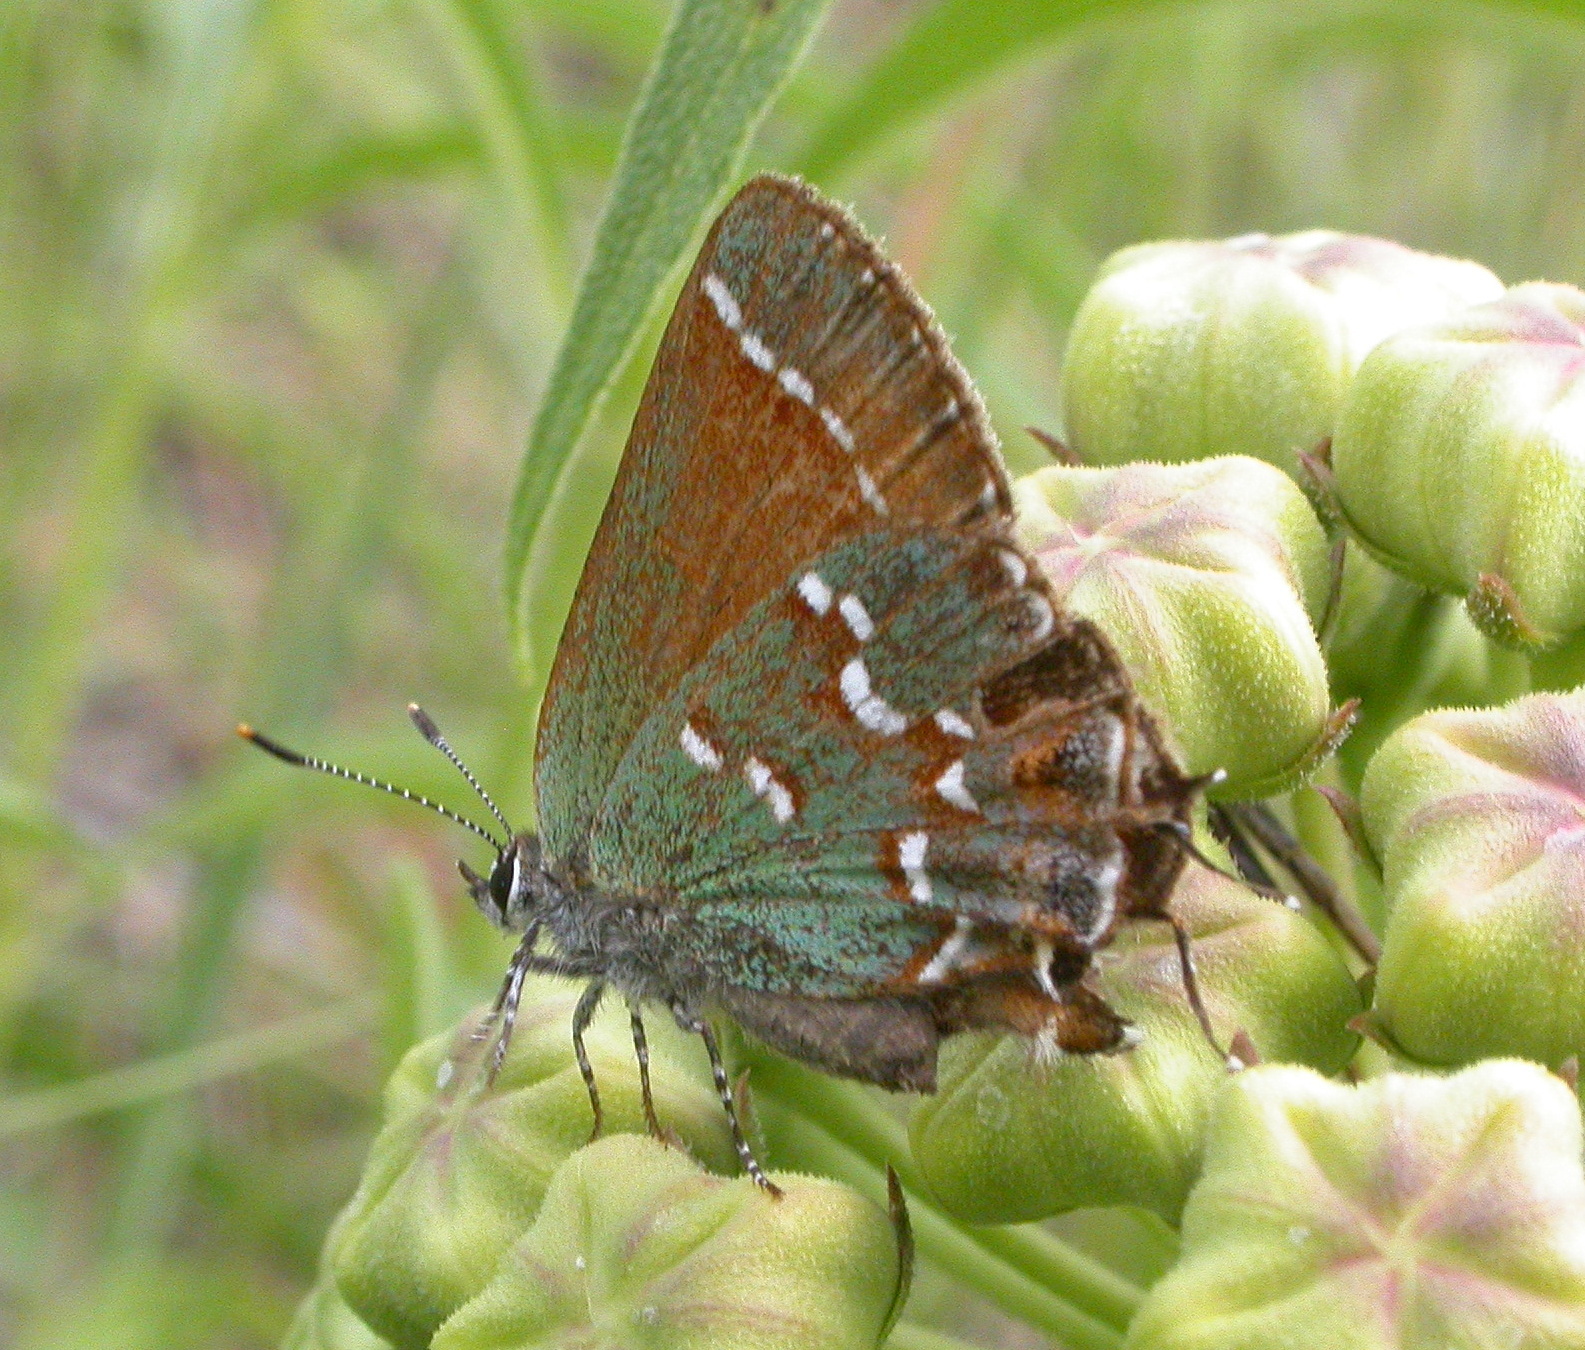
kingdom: Animalia
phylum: Arthropoda
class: Insecta
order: Lepidoptera
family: Lycaenidae
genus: Mitoura
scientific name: Mitoura gryneus
